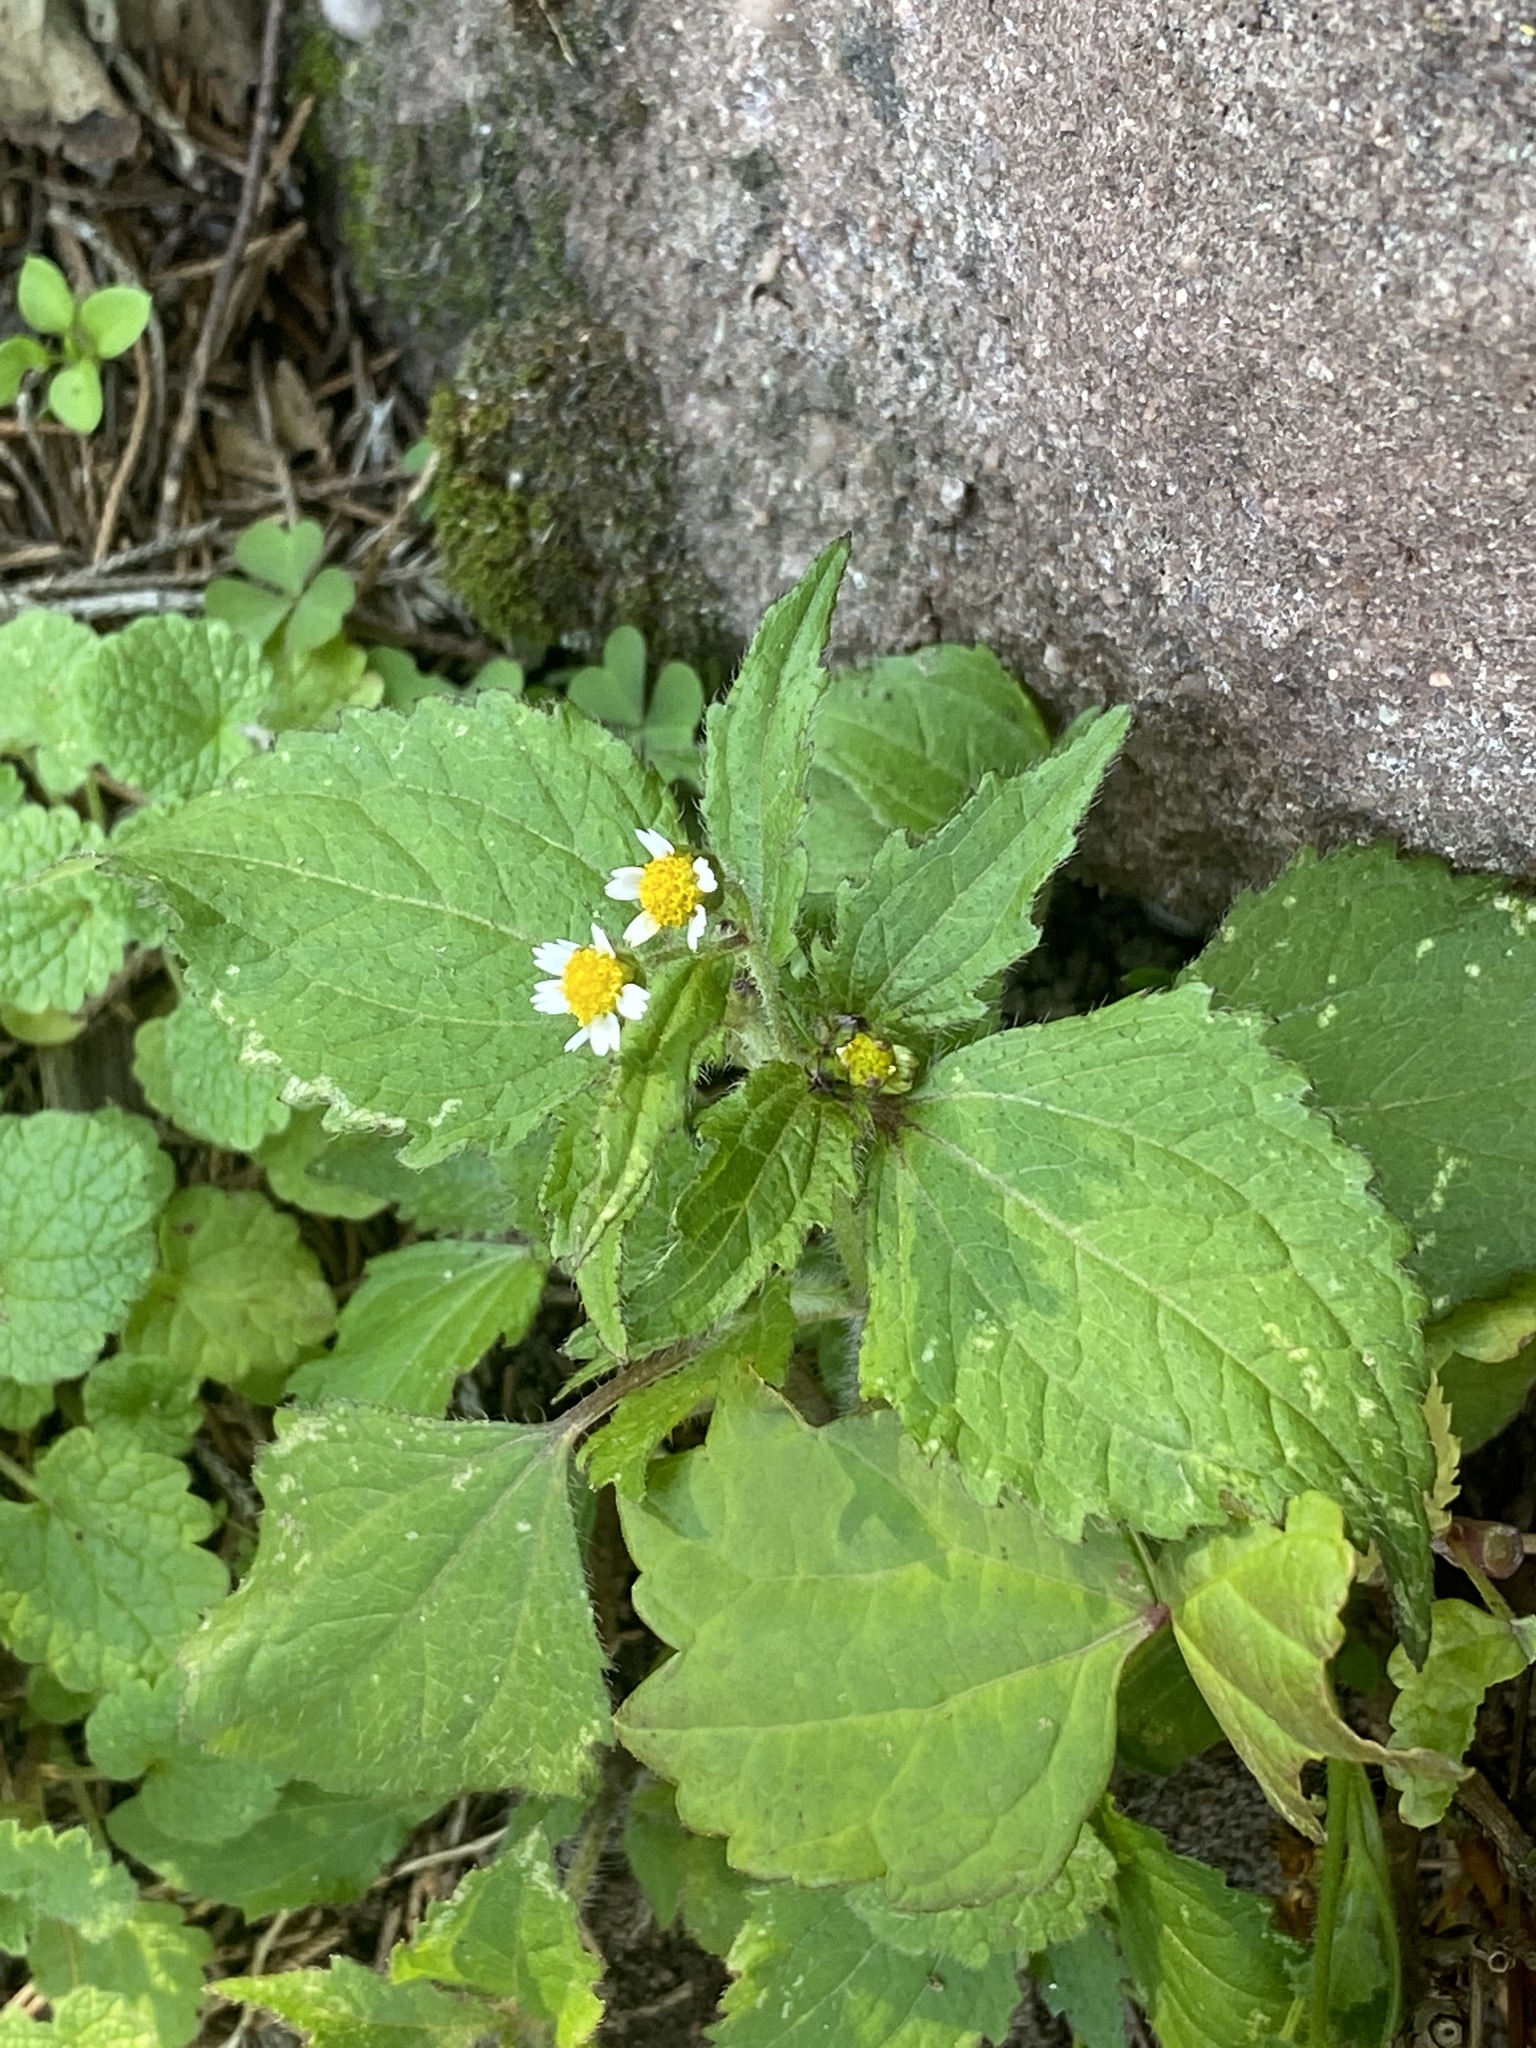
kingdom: Plantae
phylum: Tracheophyta
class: Magnoliopsida
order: Asterales
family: Asteraceae
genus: Galinsoga
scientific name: Galinsoga quadriradiata
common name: Shaggy soldier
